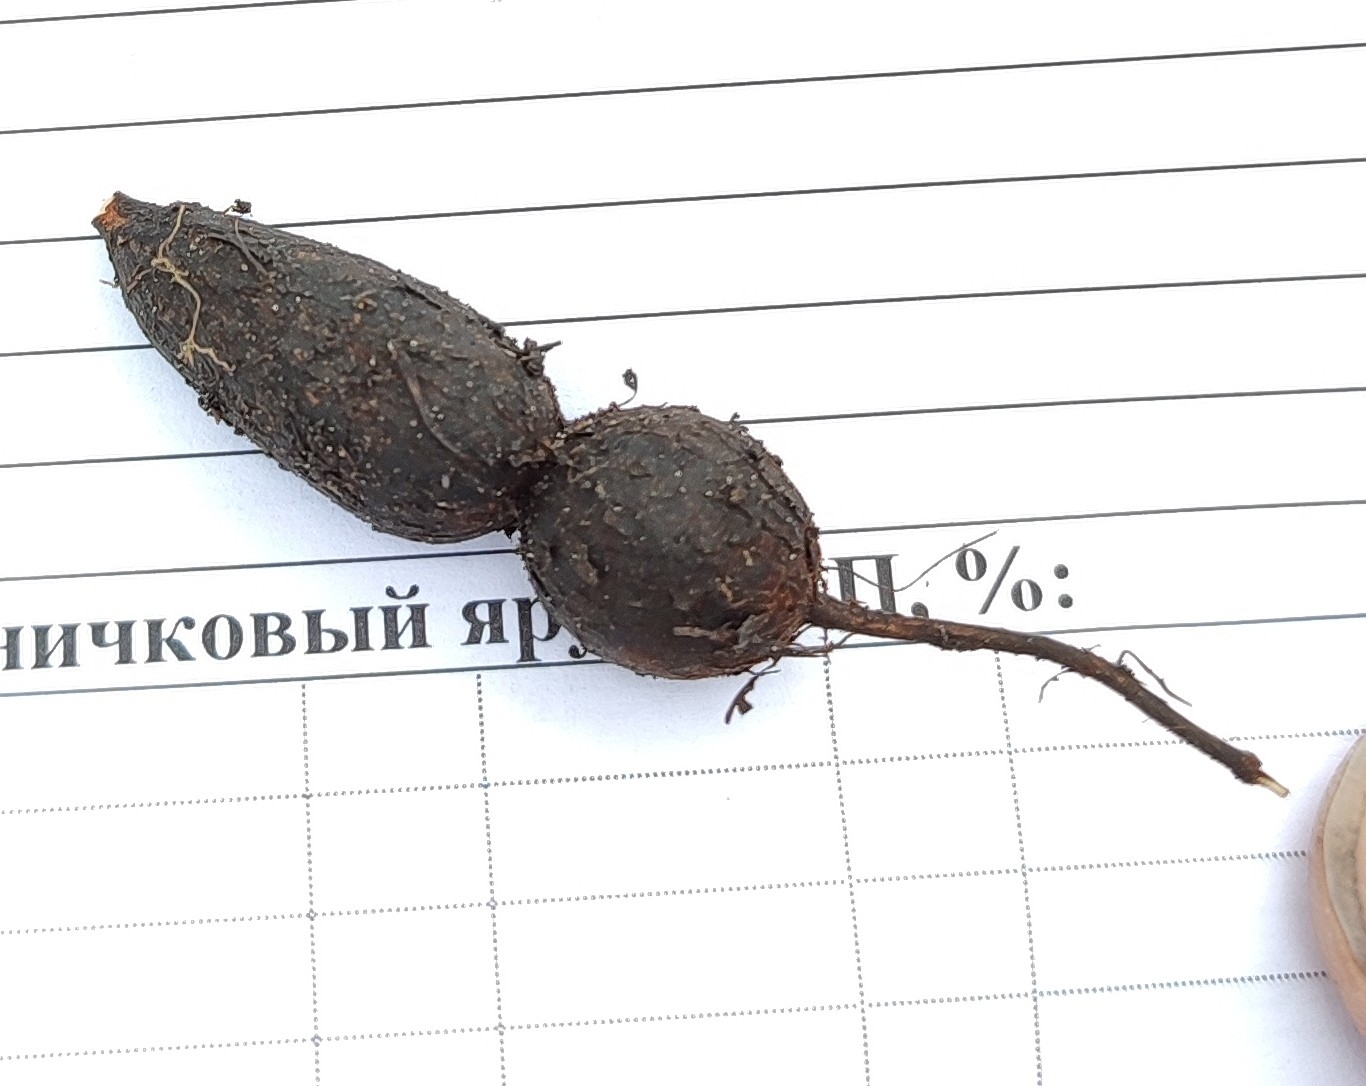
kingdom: Plantae
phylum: Tracheophyta
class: Magnoliopsida
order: Lamiales
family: Lamiaceae
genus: Phlomoides
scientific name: Phlomoides tuberosa
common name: Tuberous jerusalem sage
